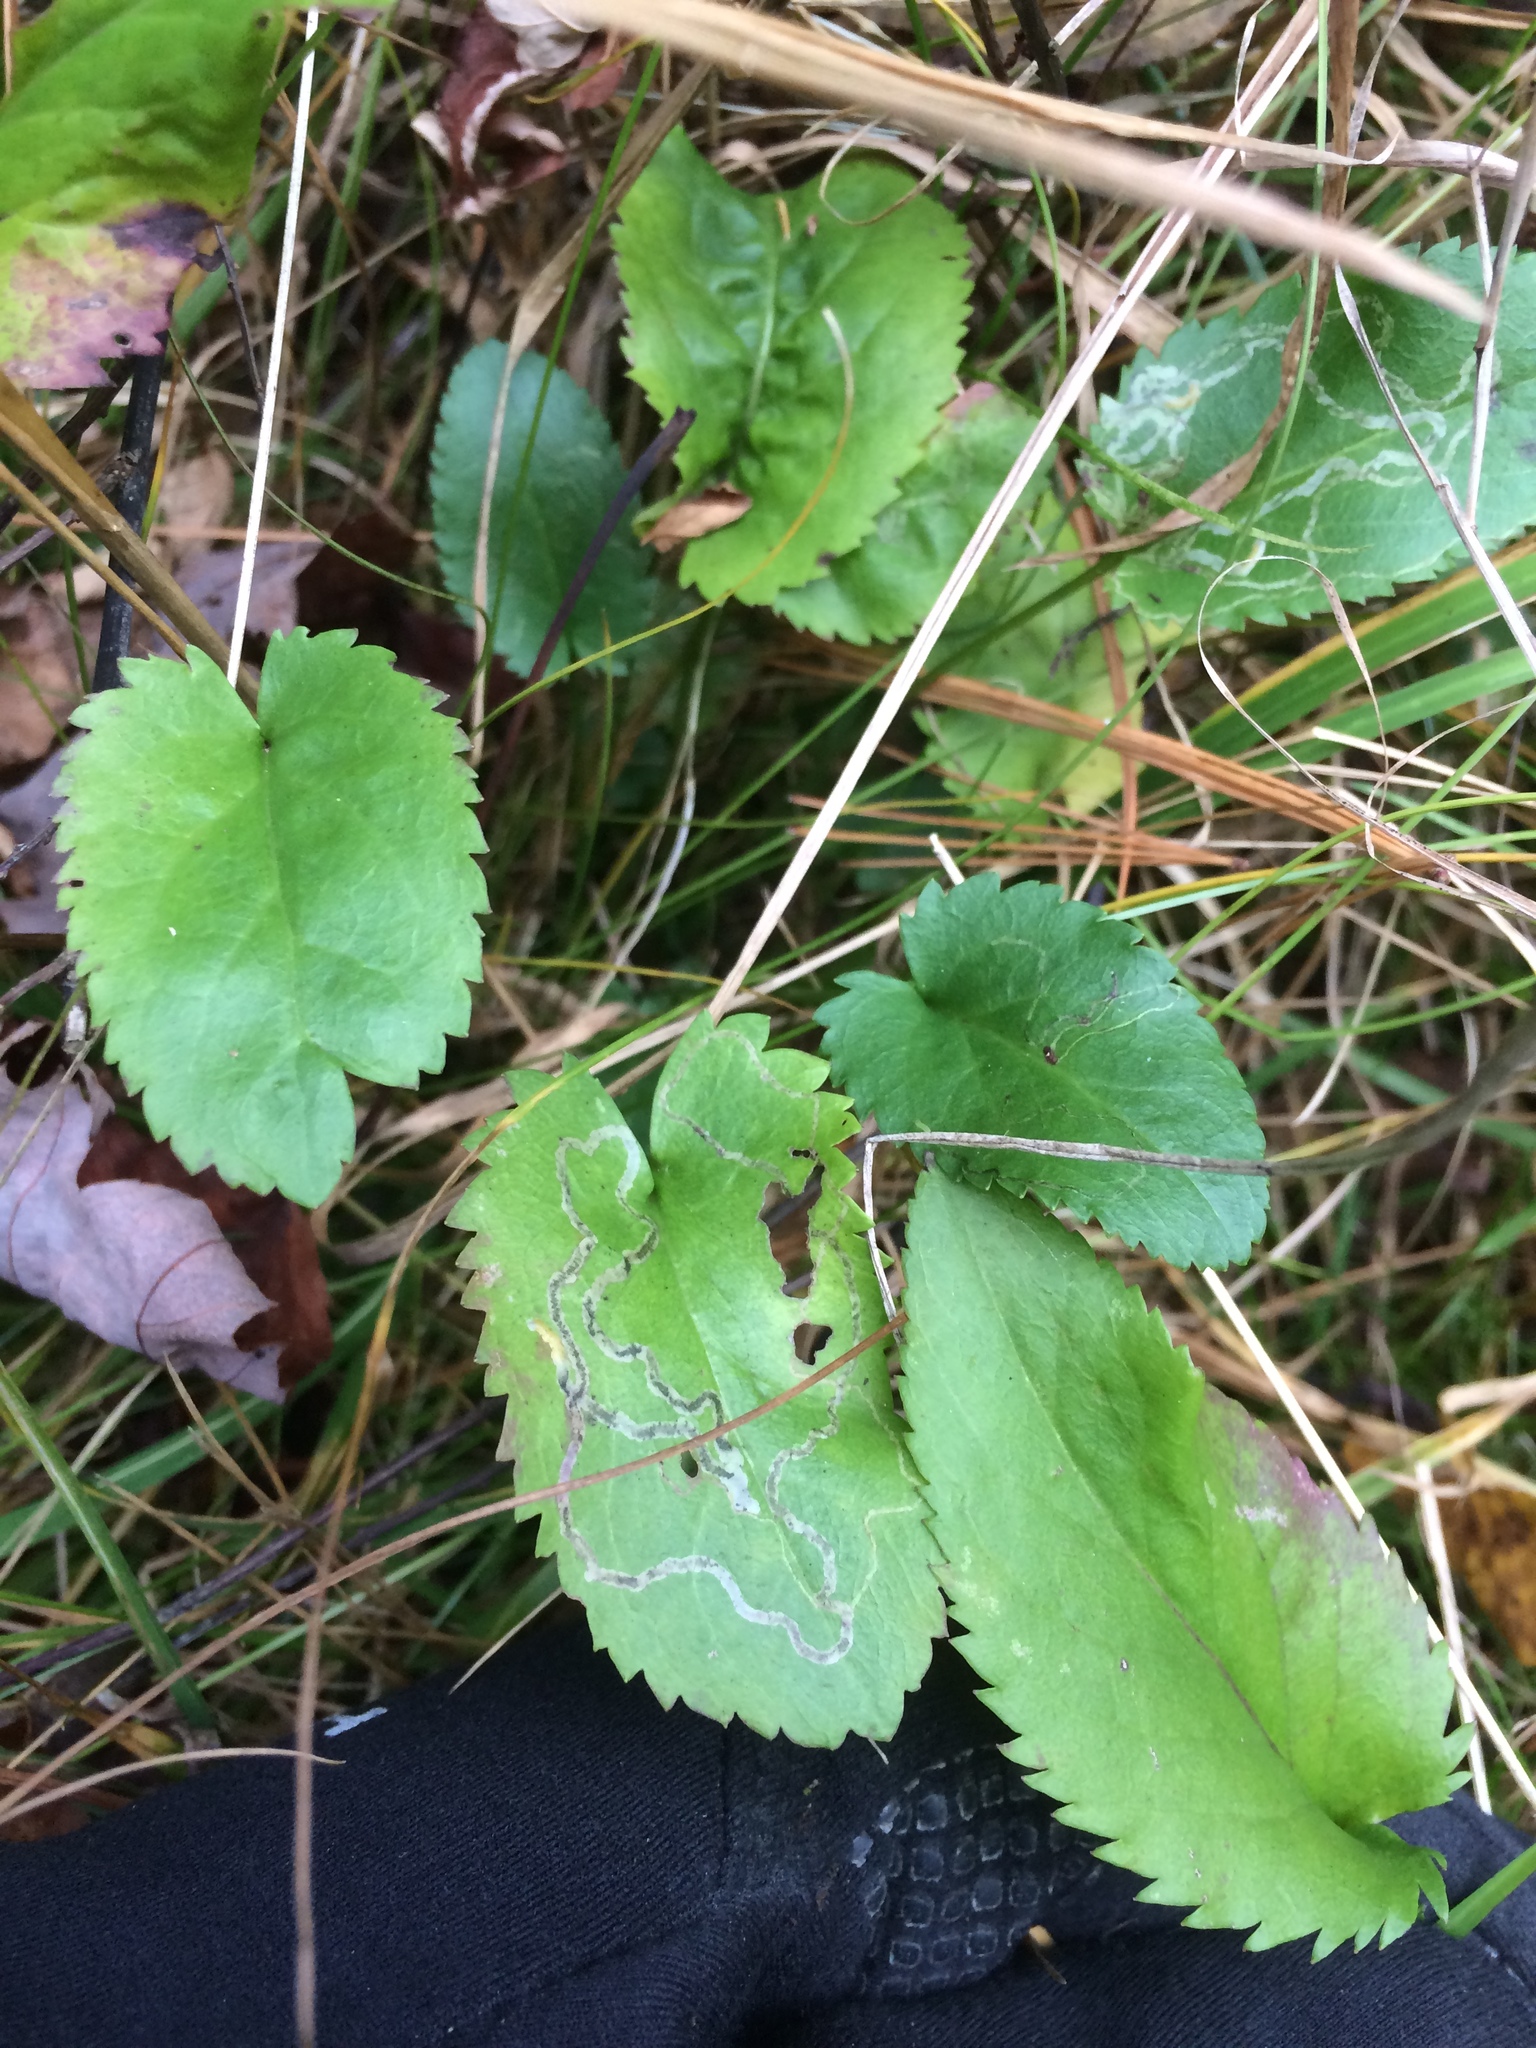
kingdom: Plantae
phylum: Tracheophyta
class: Magnoliopsida
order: Asterales
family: Asteraceae
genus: Packera
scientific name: Packera schweinitziana
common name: Schweinitz's ragwort
